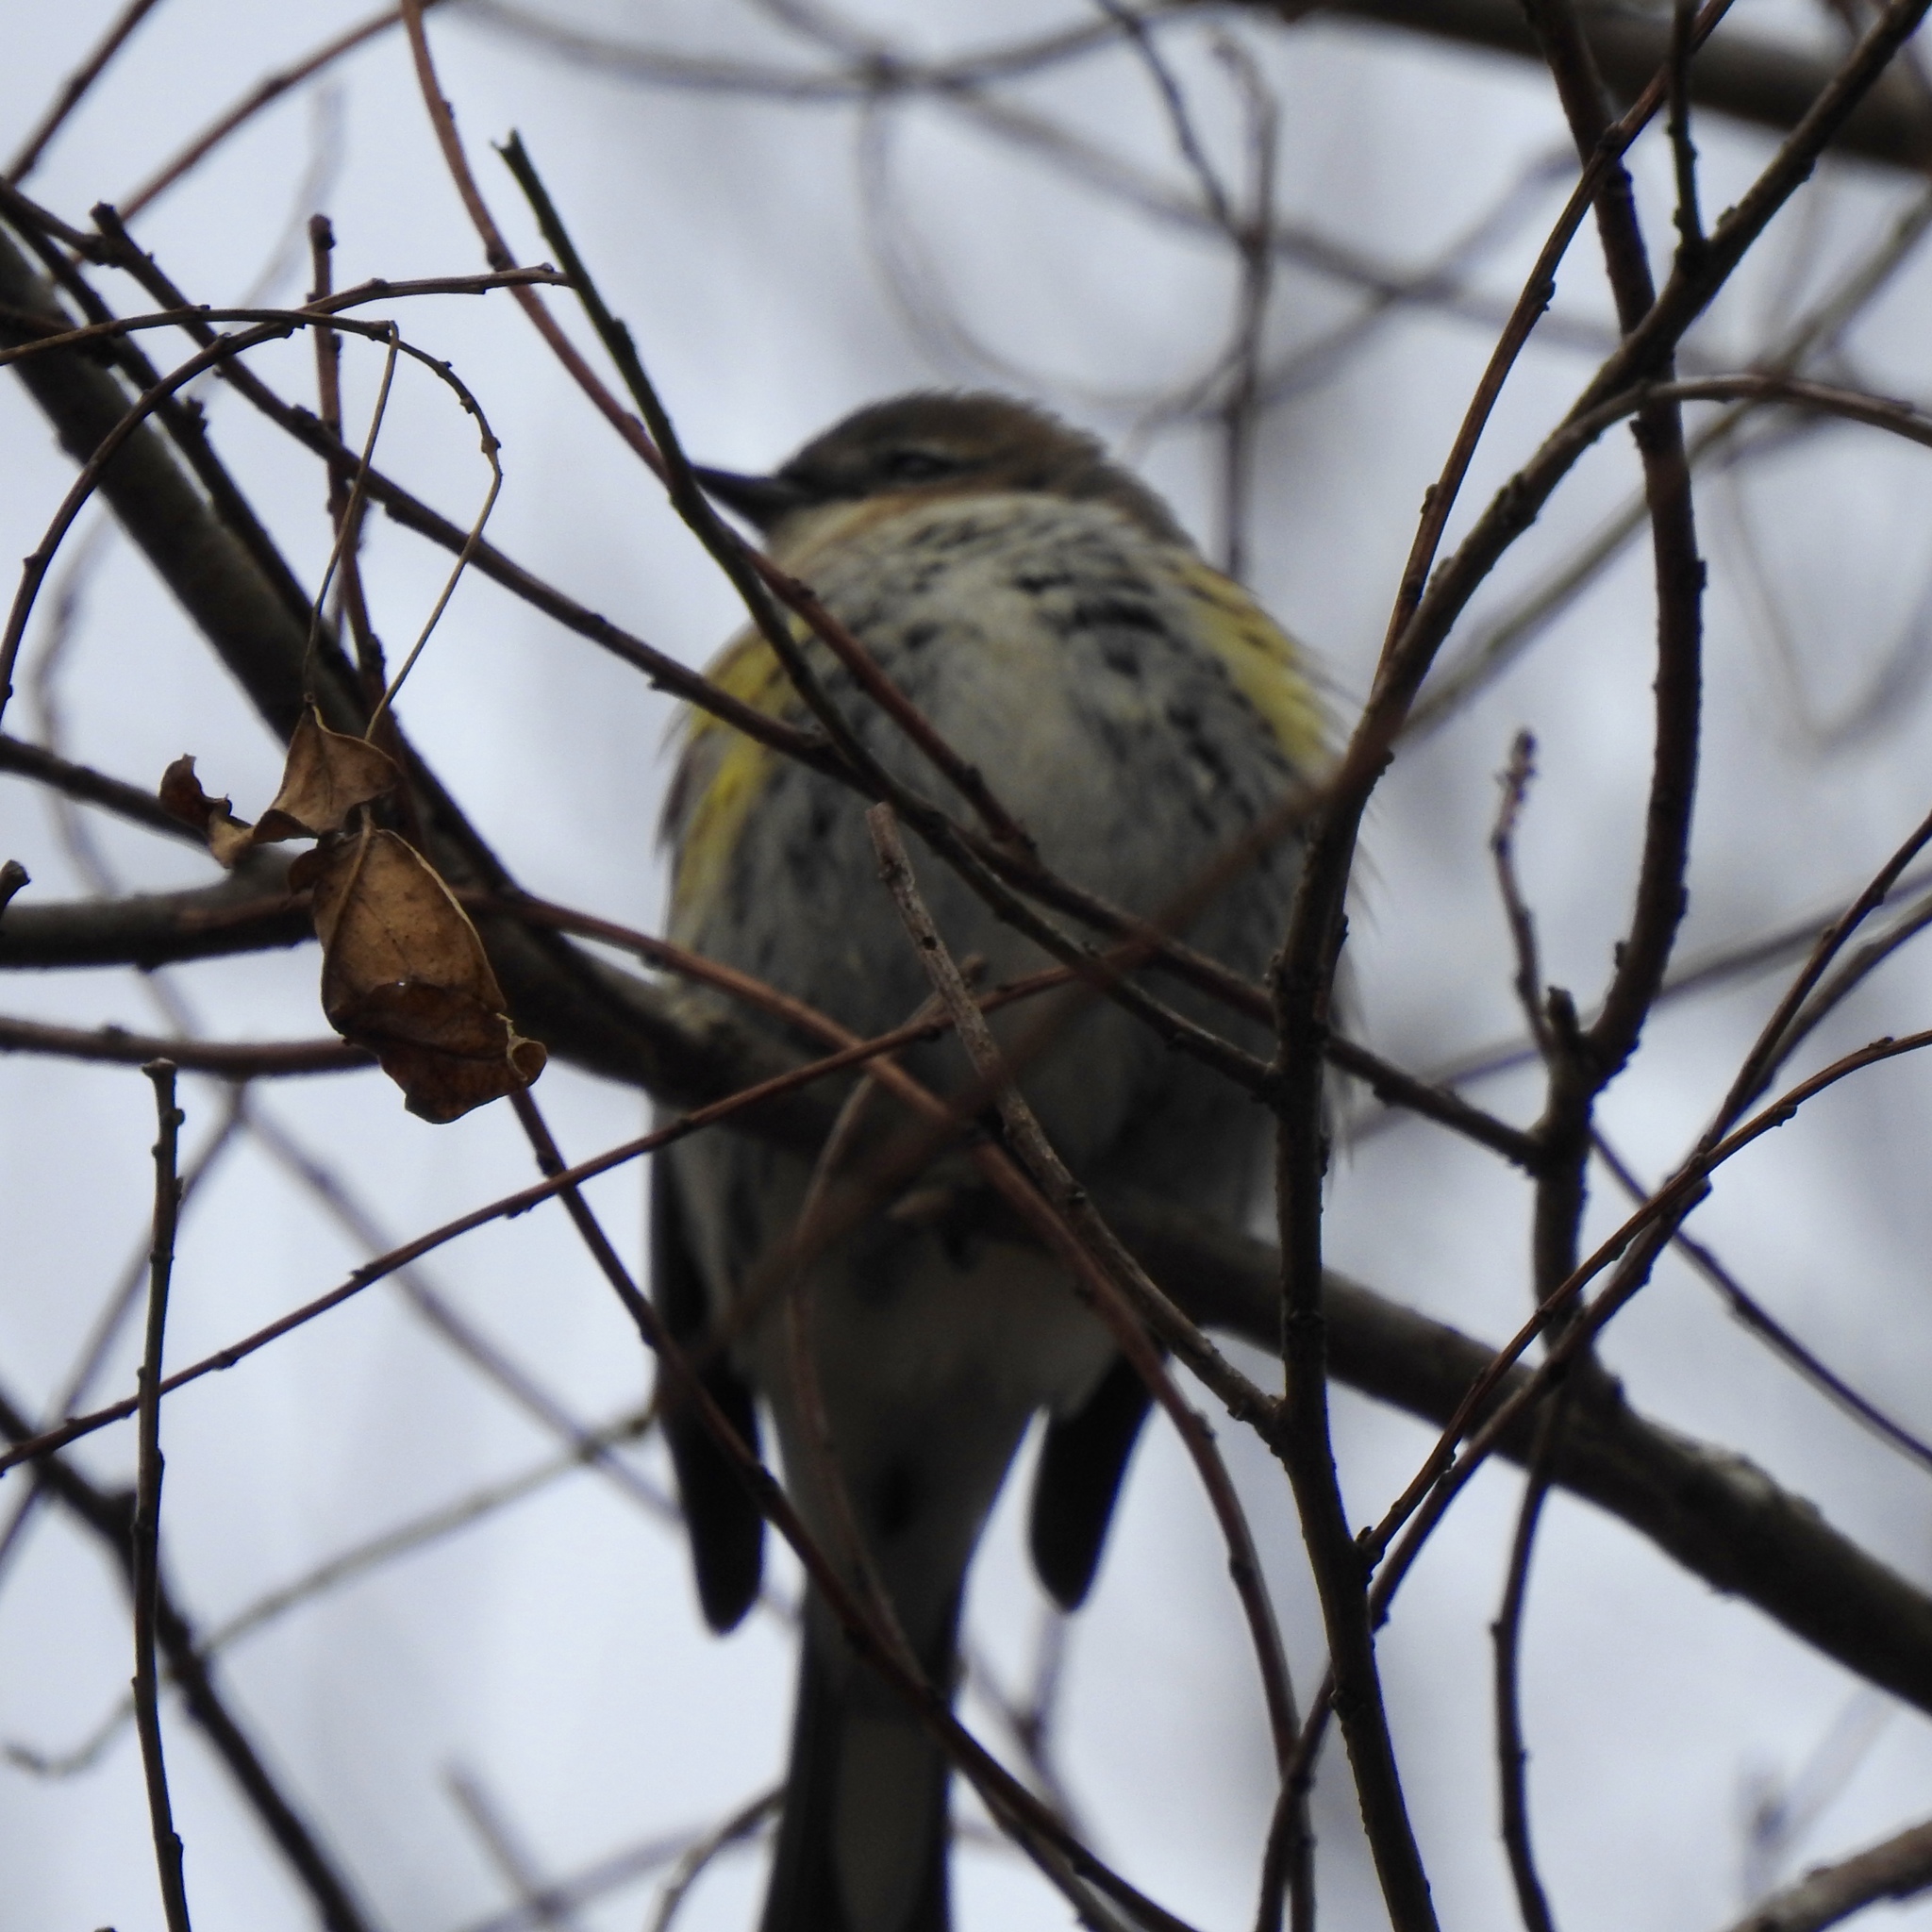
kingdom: Animalia
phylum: Chordata
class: Aves
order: Passeriformes
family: Parulidae
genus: Setophaga
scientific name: Setophaga coronata
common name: Myrtle warbler
